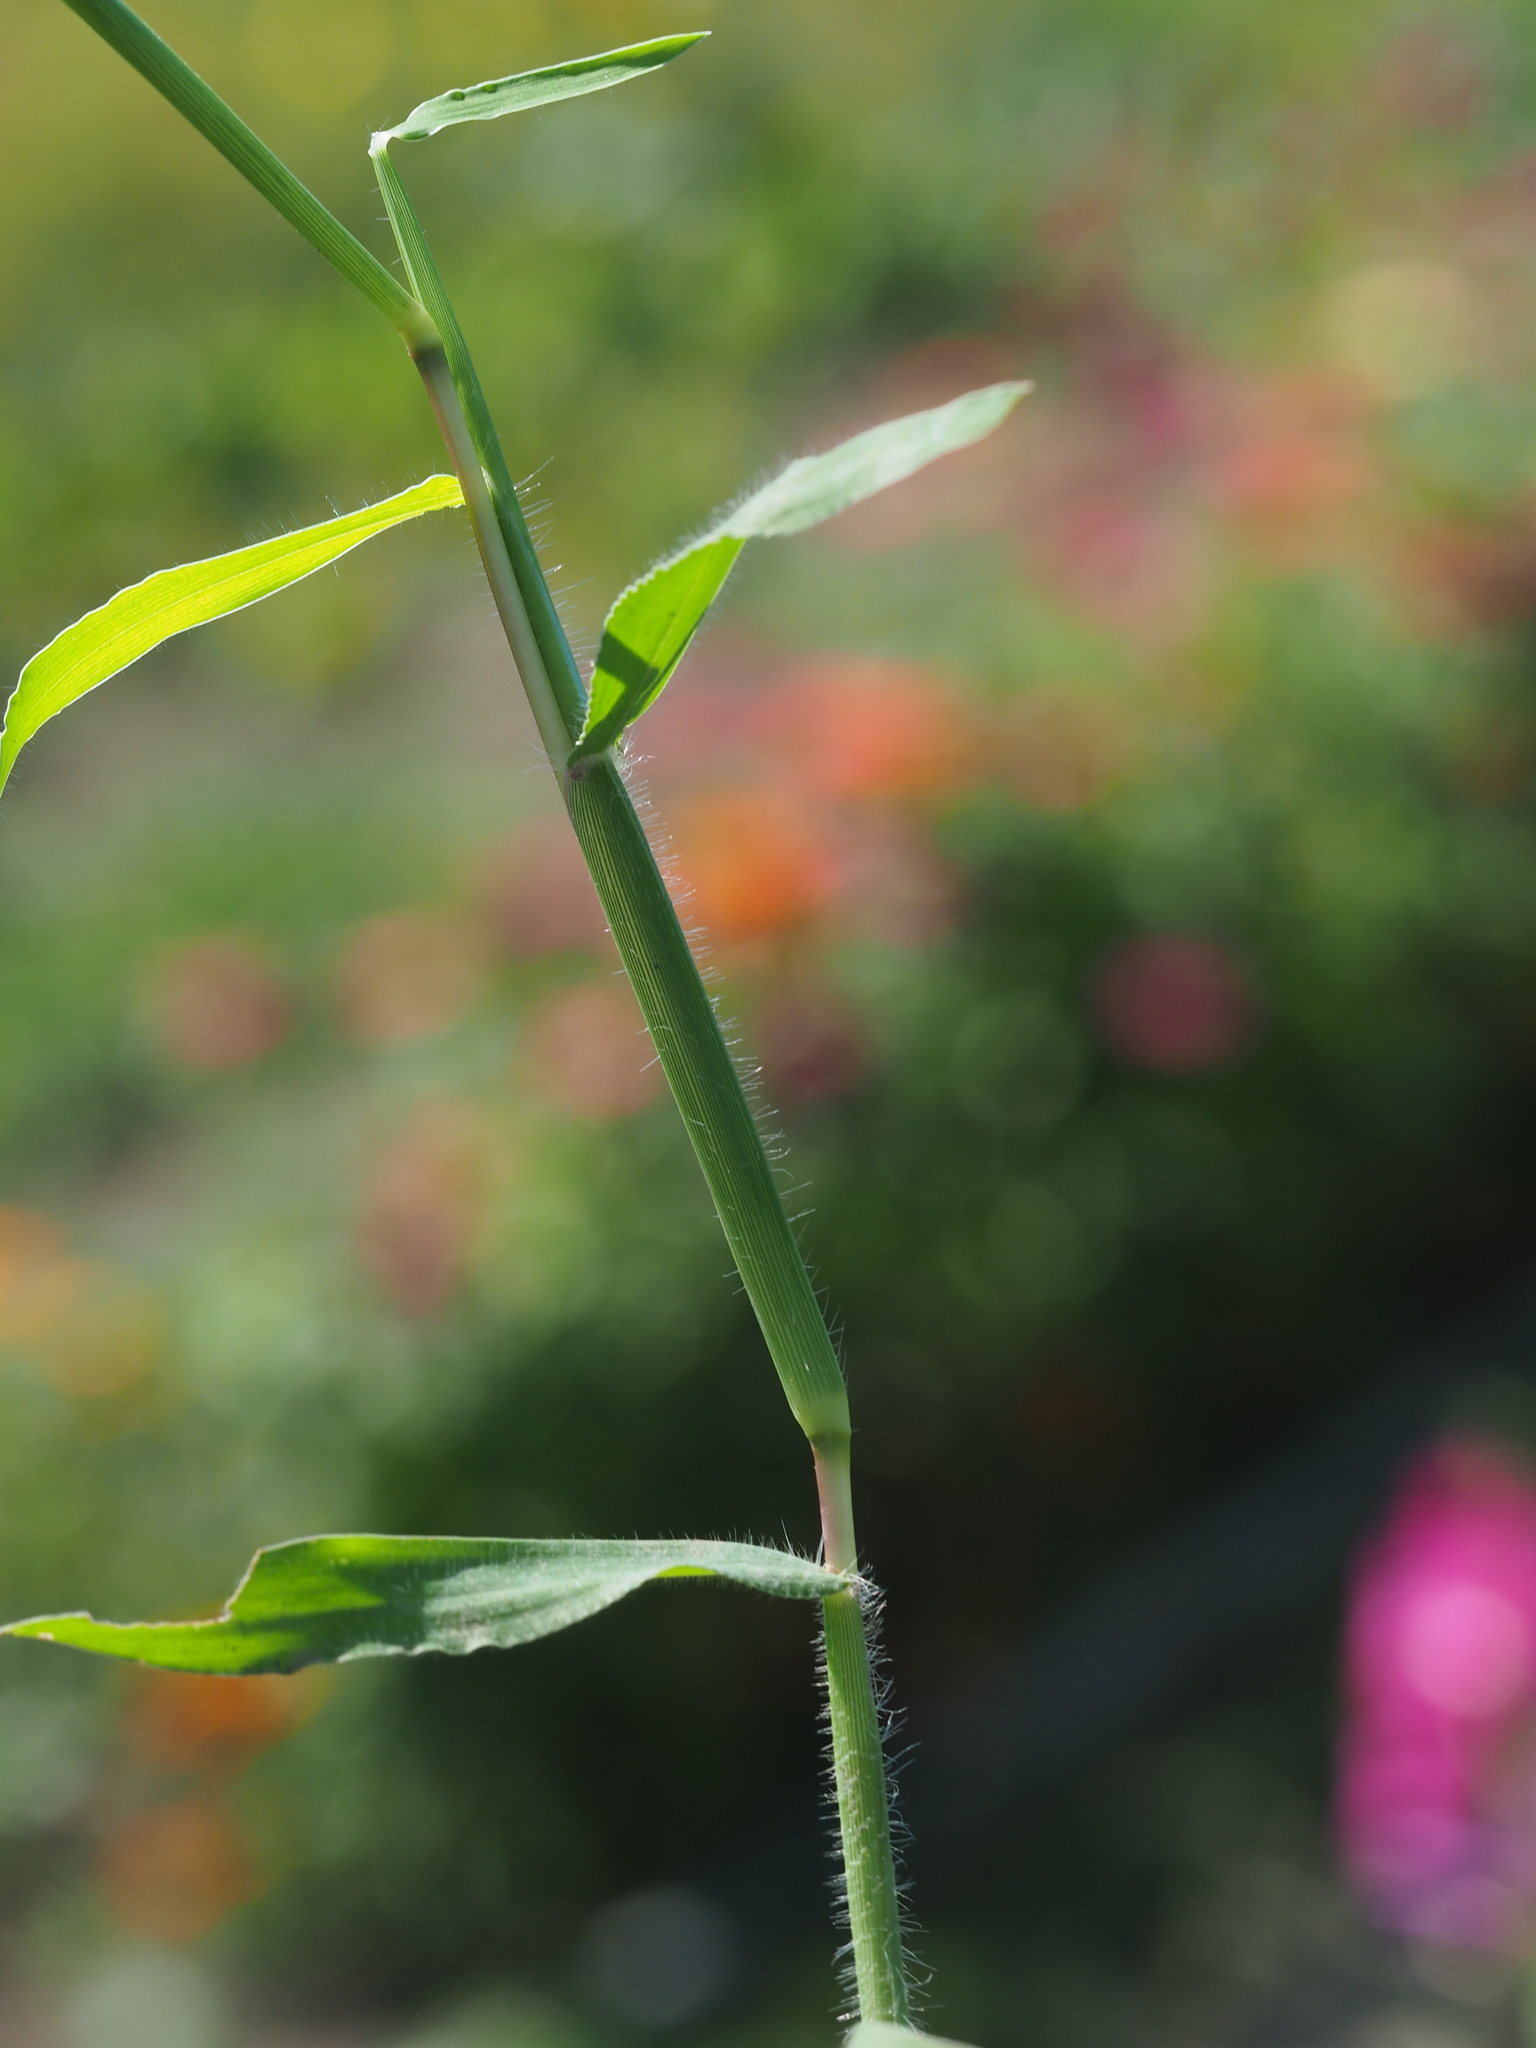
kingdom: Plantae
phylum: Tracheophyta
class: Liliopsida
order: Poales
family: Poaceae
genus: Digitaria
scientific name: Digitaria sanguinalis
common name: Hairy crabgrass
